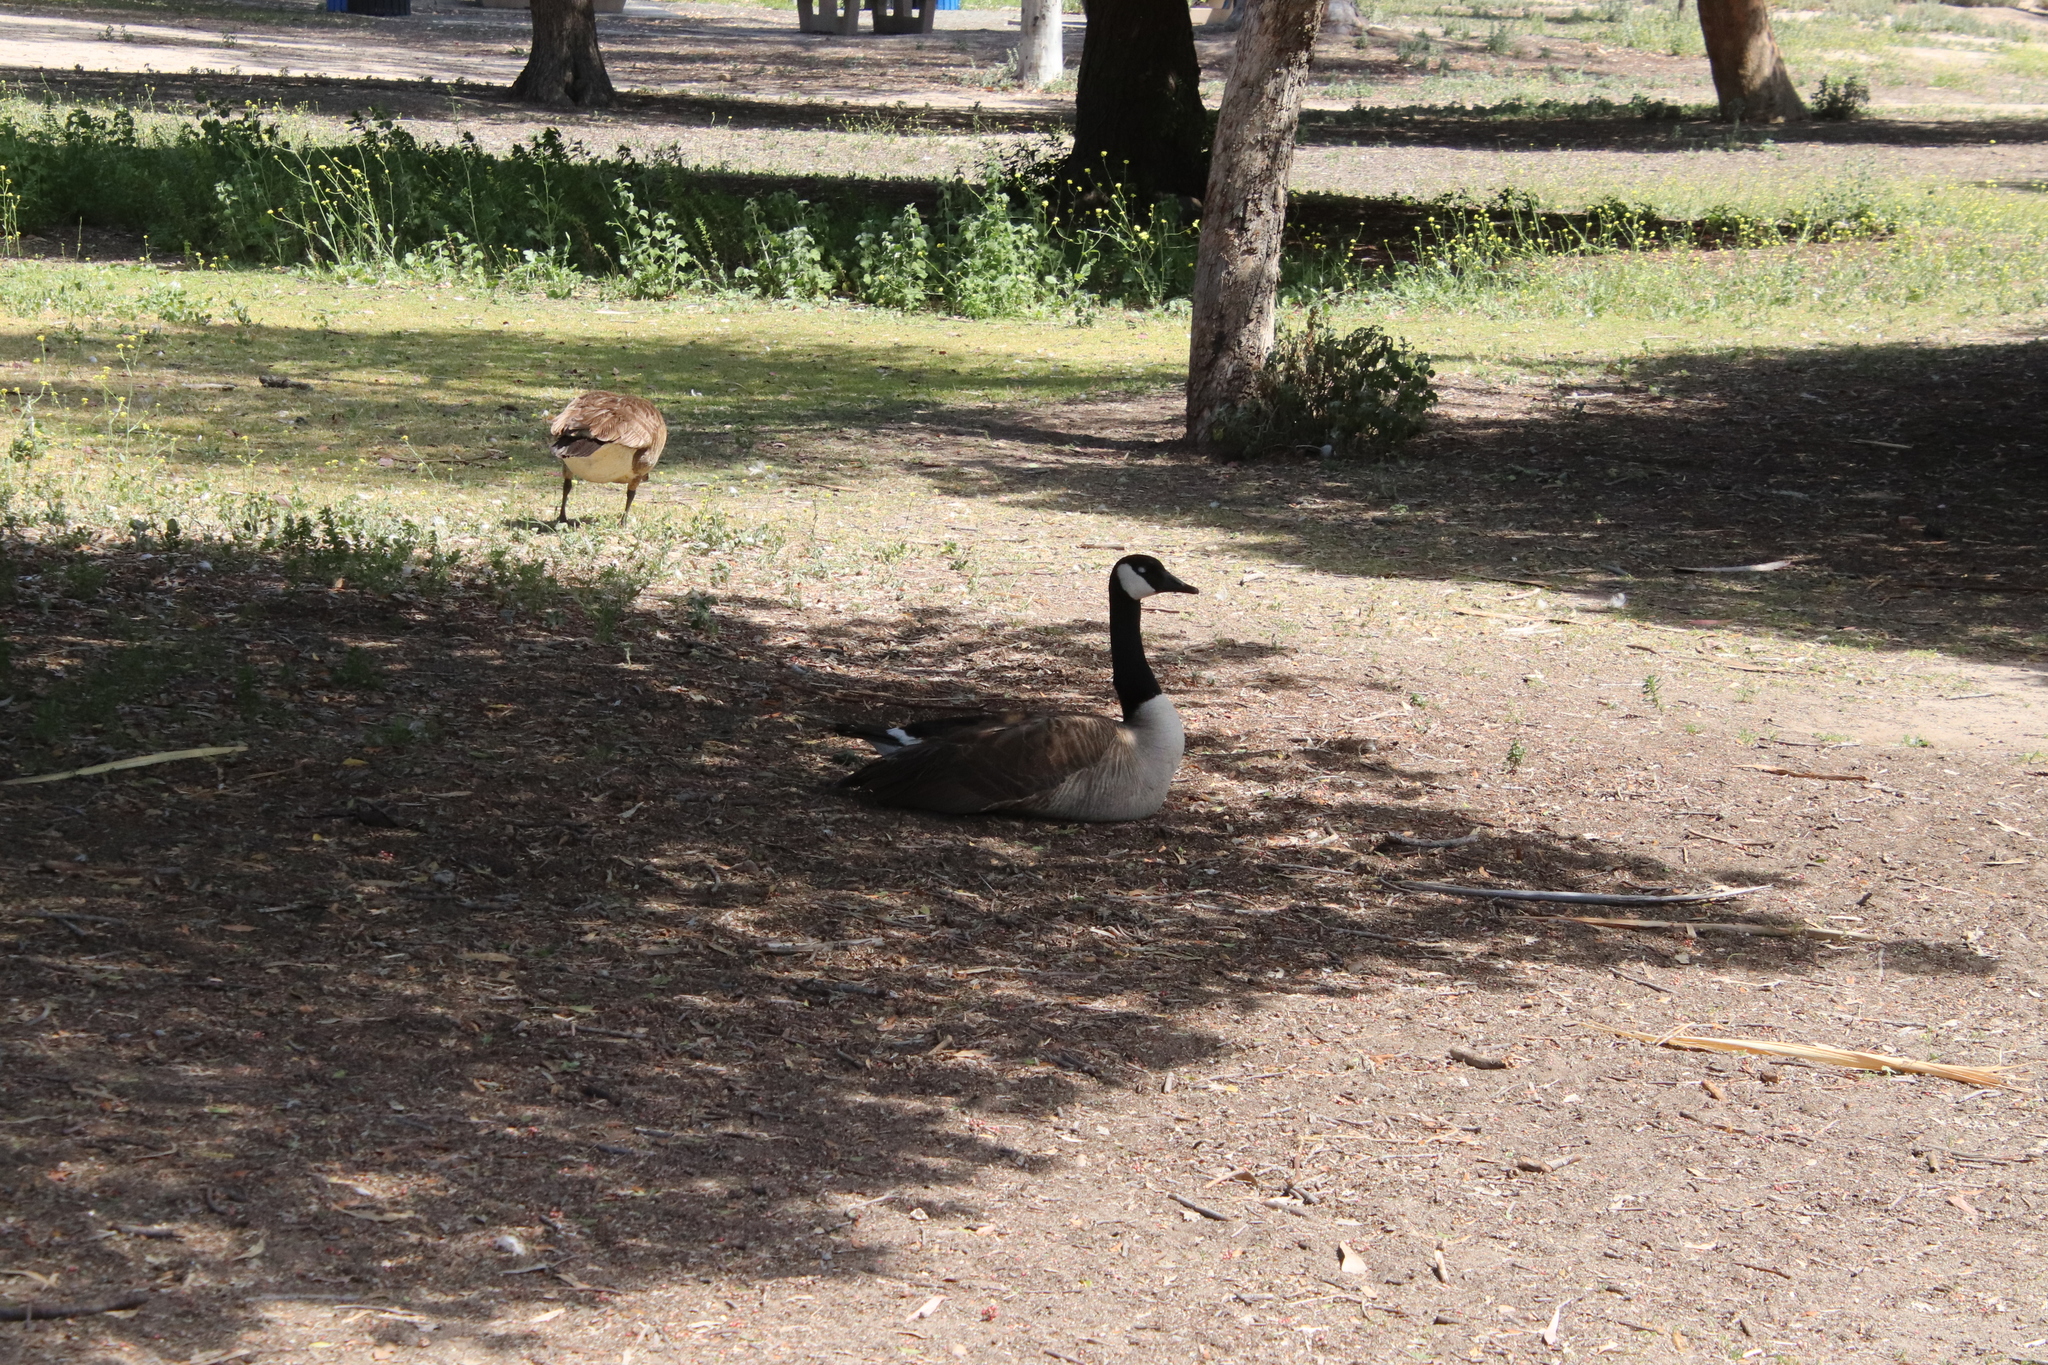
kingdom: Animalia
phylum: Chordata
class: Aves
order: Anseriformes
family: Anatidae
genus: Branta
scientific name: Branta canadensis
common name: Canada goose
